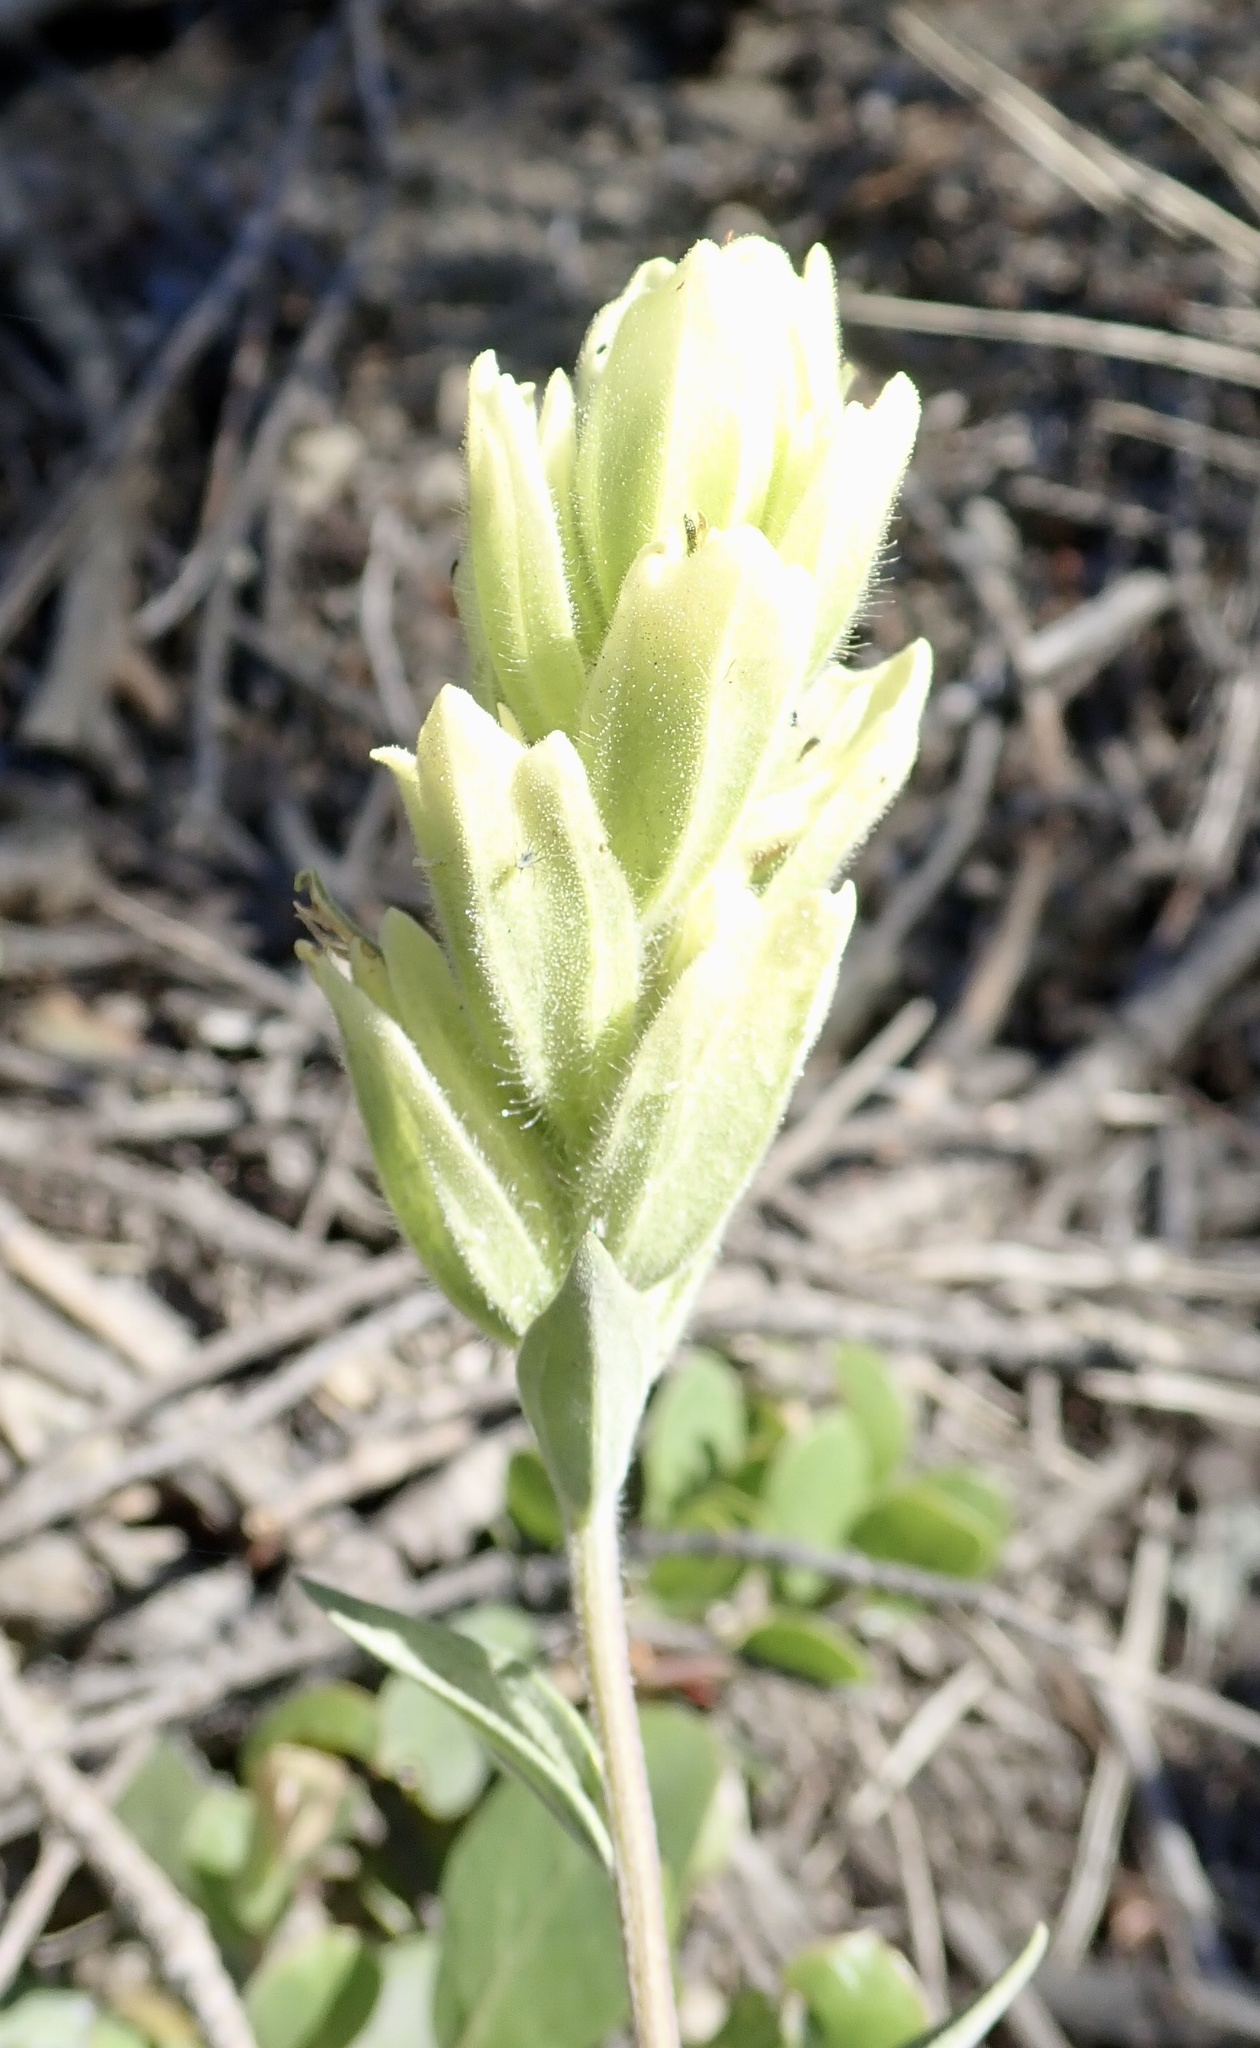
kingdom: Plantae
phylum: Tracheophyta
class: Magnoliopsida
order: Lamiales
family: Orobanchaceae
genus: Castilleja
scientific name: Castilleja elmeri
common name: Elmer's paintbrush
